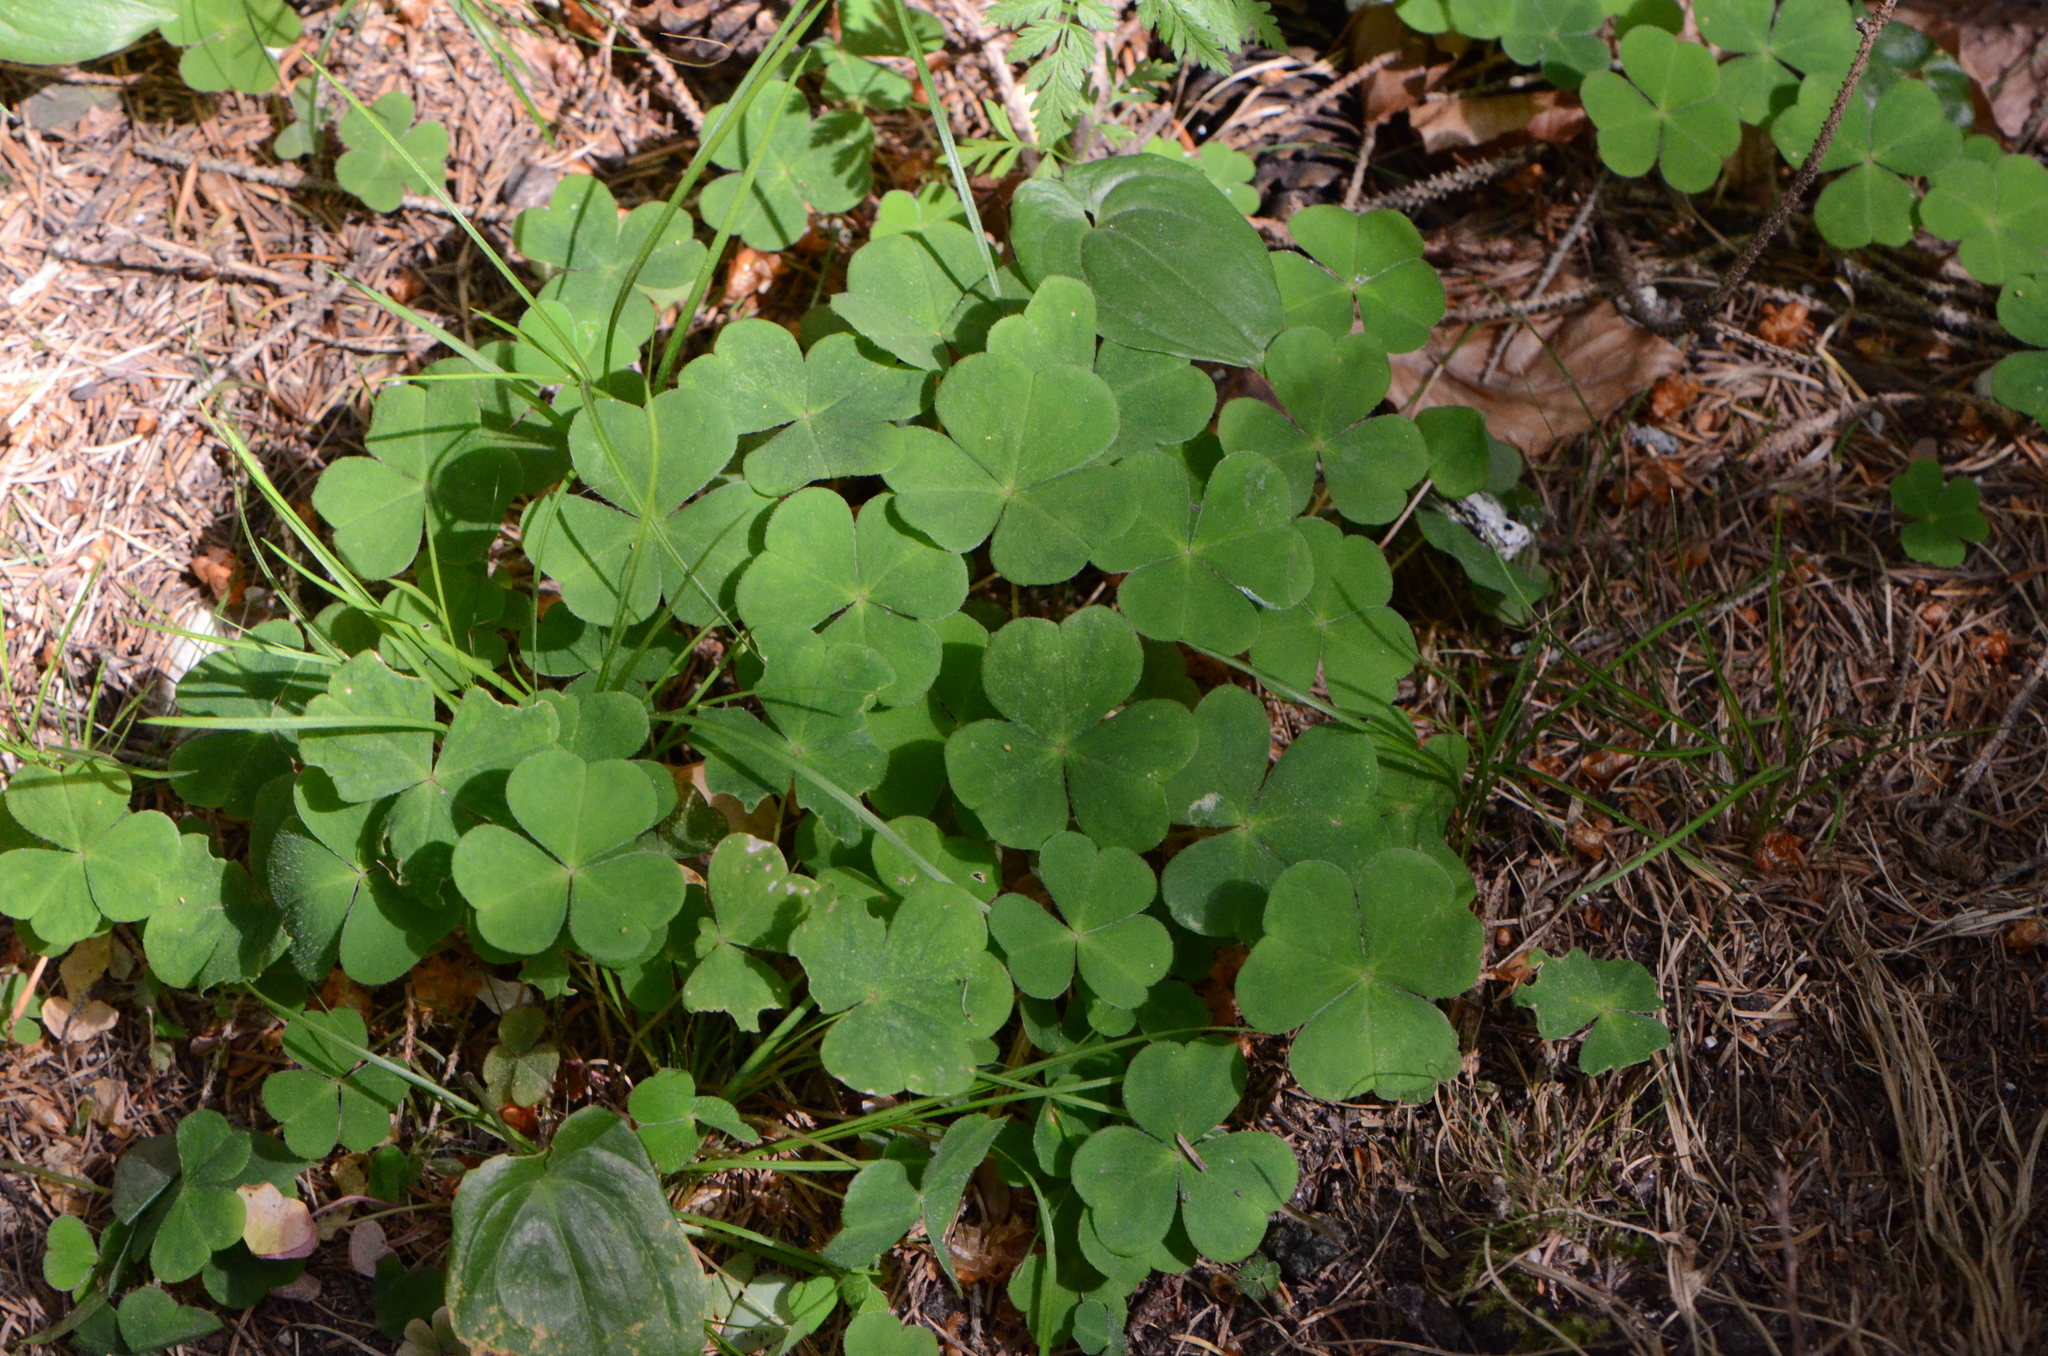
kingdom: Plantae
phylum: Tracheophyta
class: Magnoliopsida
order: Oxalidales
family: Oxalidaceae
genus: Oxalis
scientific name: Oxalis acetosella
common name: Wood-sorrel
